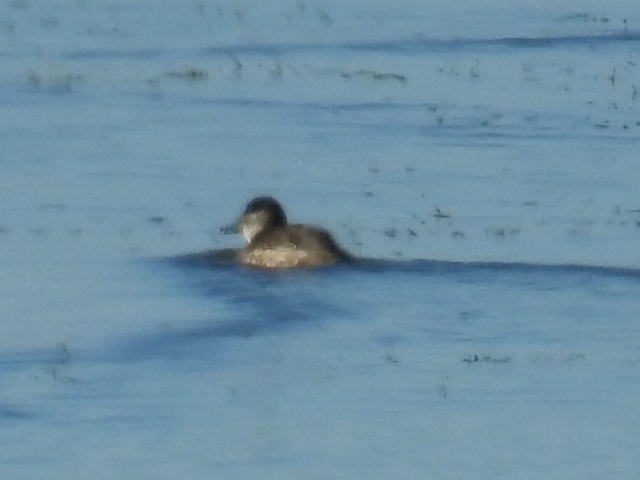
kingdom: Animalia
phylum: Chordata
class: Aves
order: Anseriformes
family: Anatidae
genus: Oxyura
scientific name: Oxyura jamaicensis
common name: Ruddy duck
